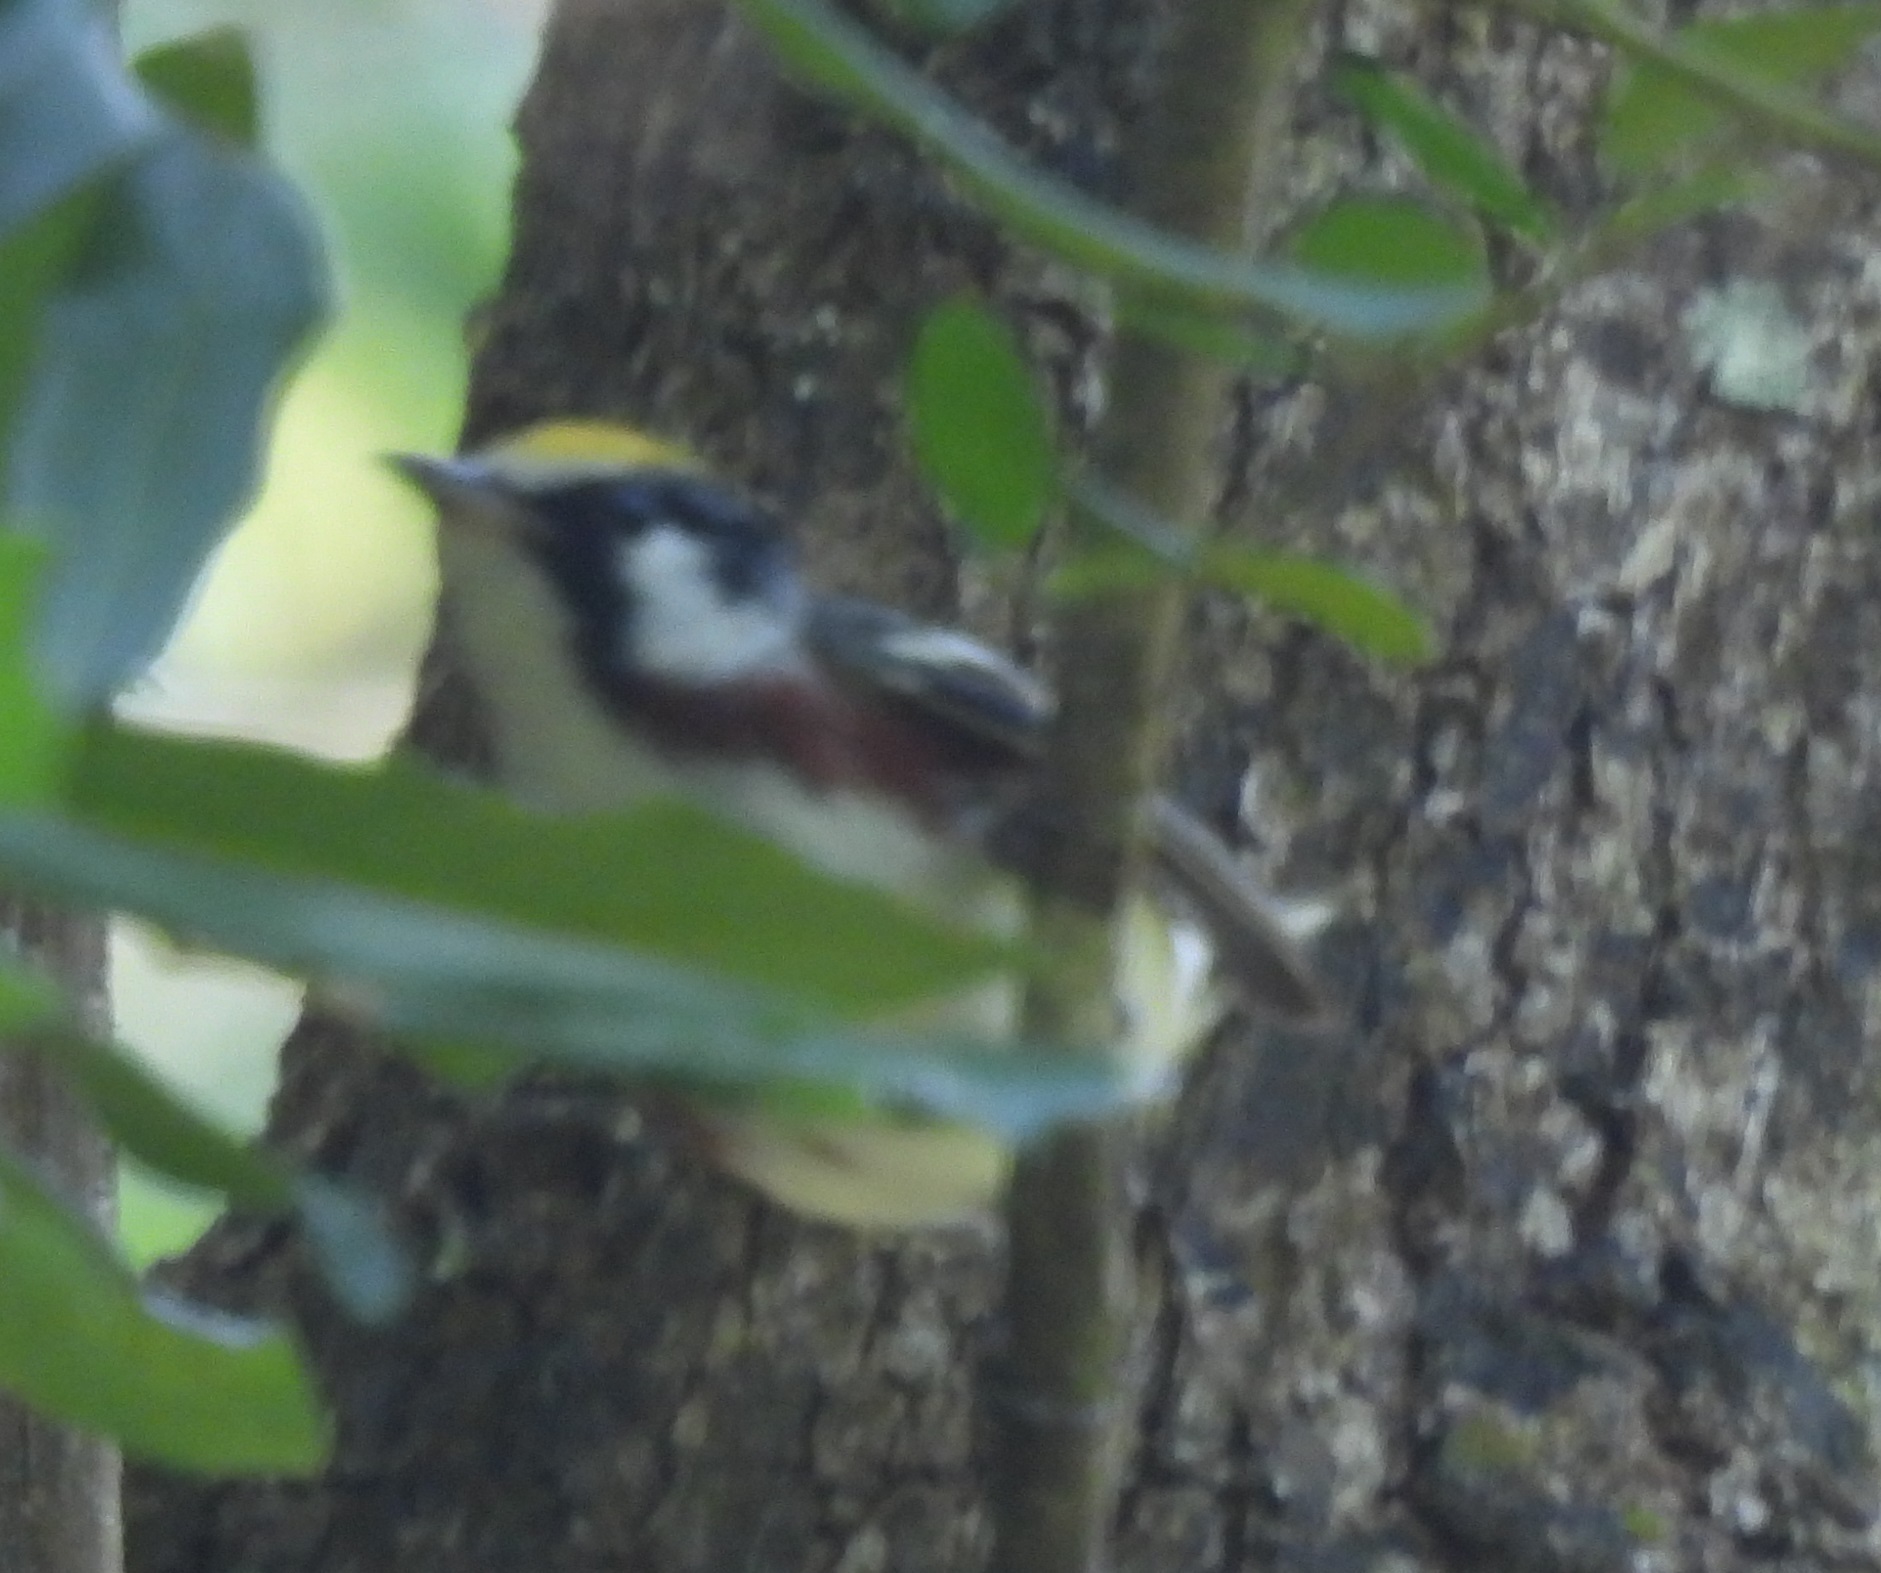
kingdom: Animalia
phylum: Chordata
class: Aves
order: Passeriformes
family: Parulidae
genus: Setophaga
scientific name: Setophaga pensylvanica
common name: Chestnut-sided warbler
